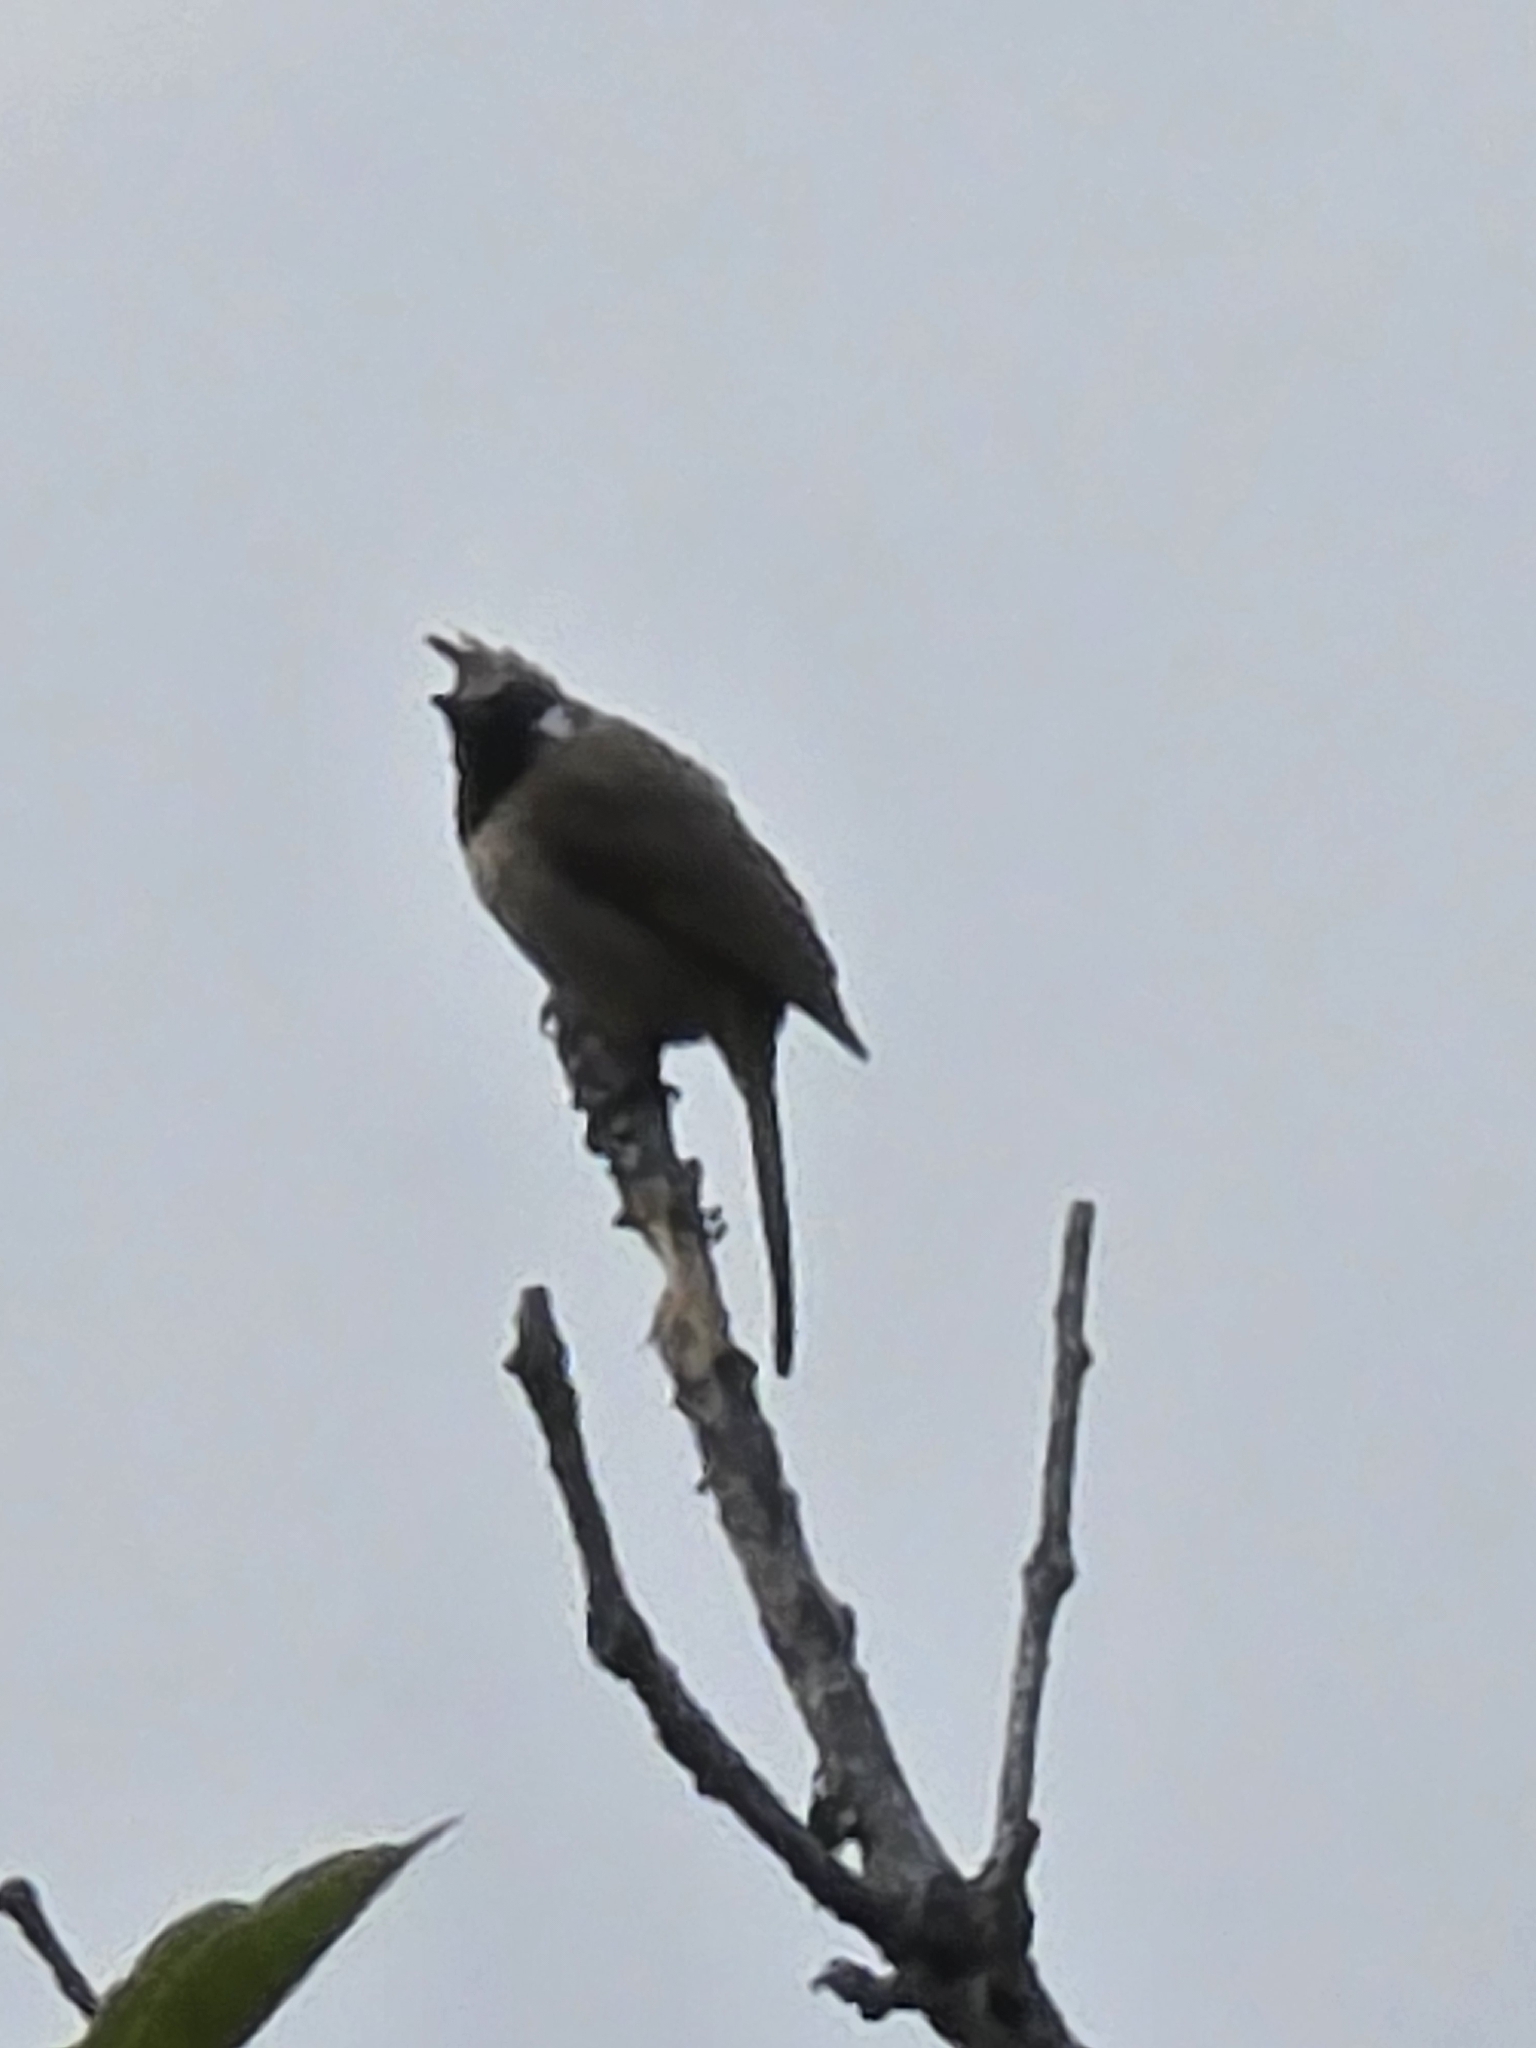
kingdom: Animalia
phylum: Chordata
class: Aves
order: Passeriformes
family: Pycnonotidae
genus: Pycnonotus
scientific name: Pycnonotus leucogenys
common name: Himalayan bulbul
